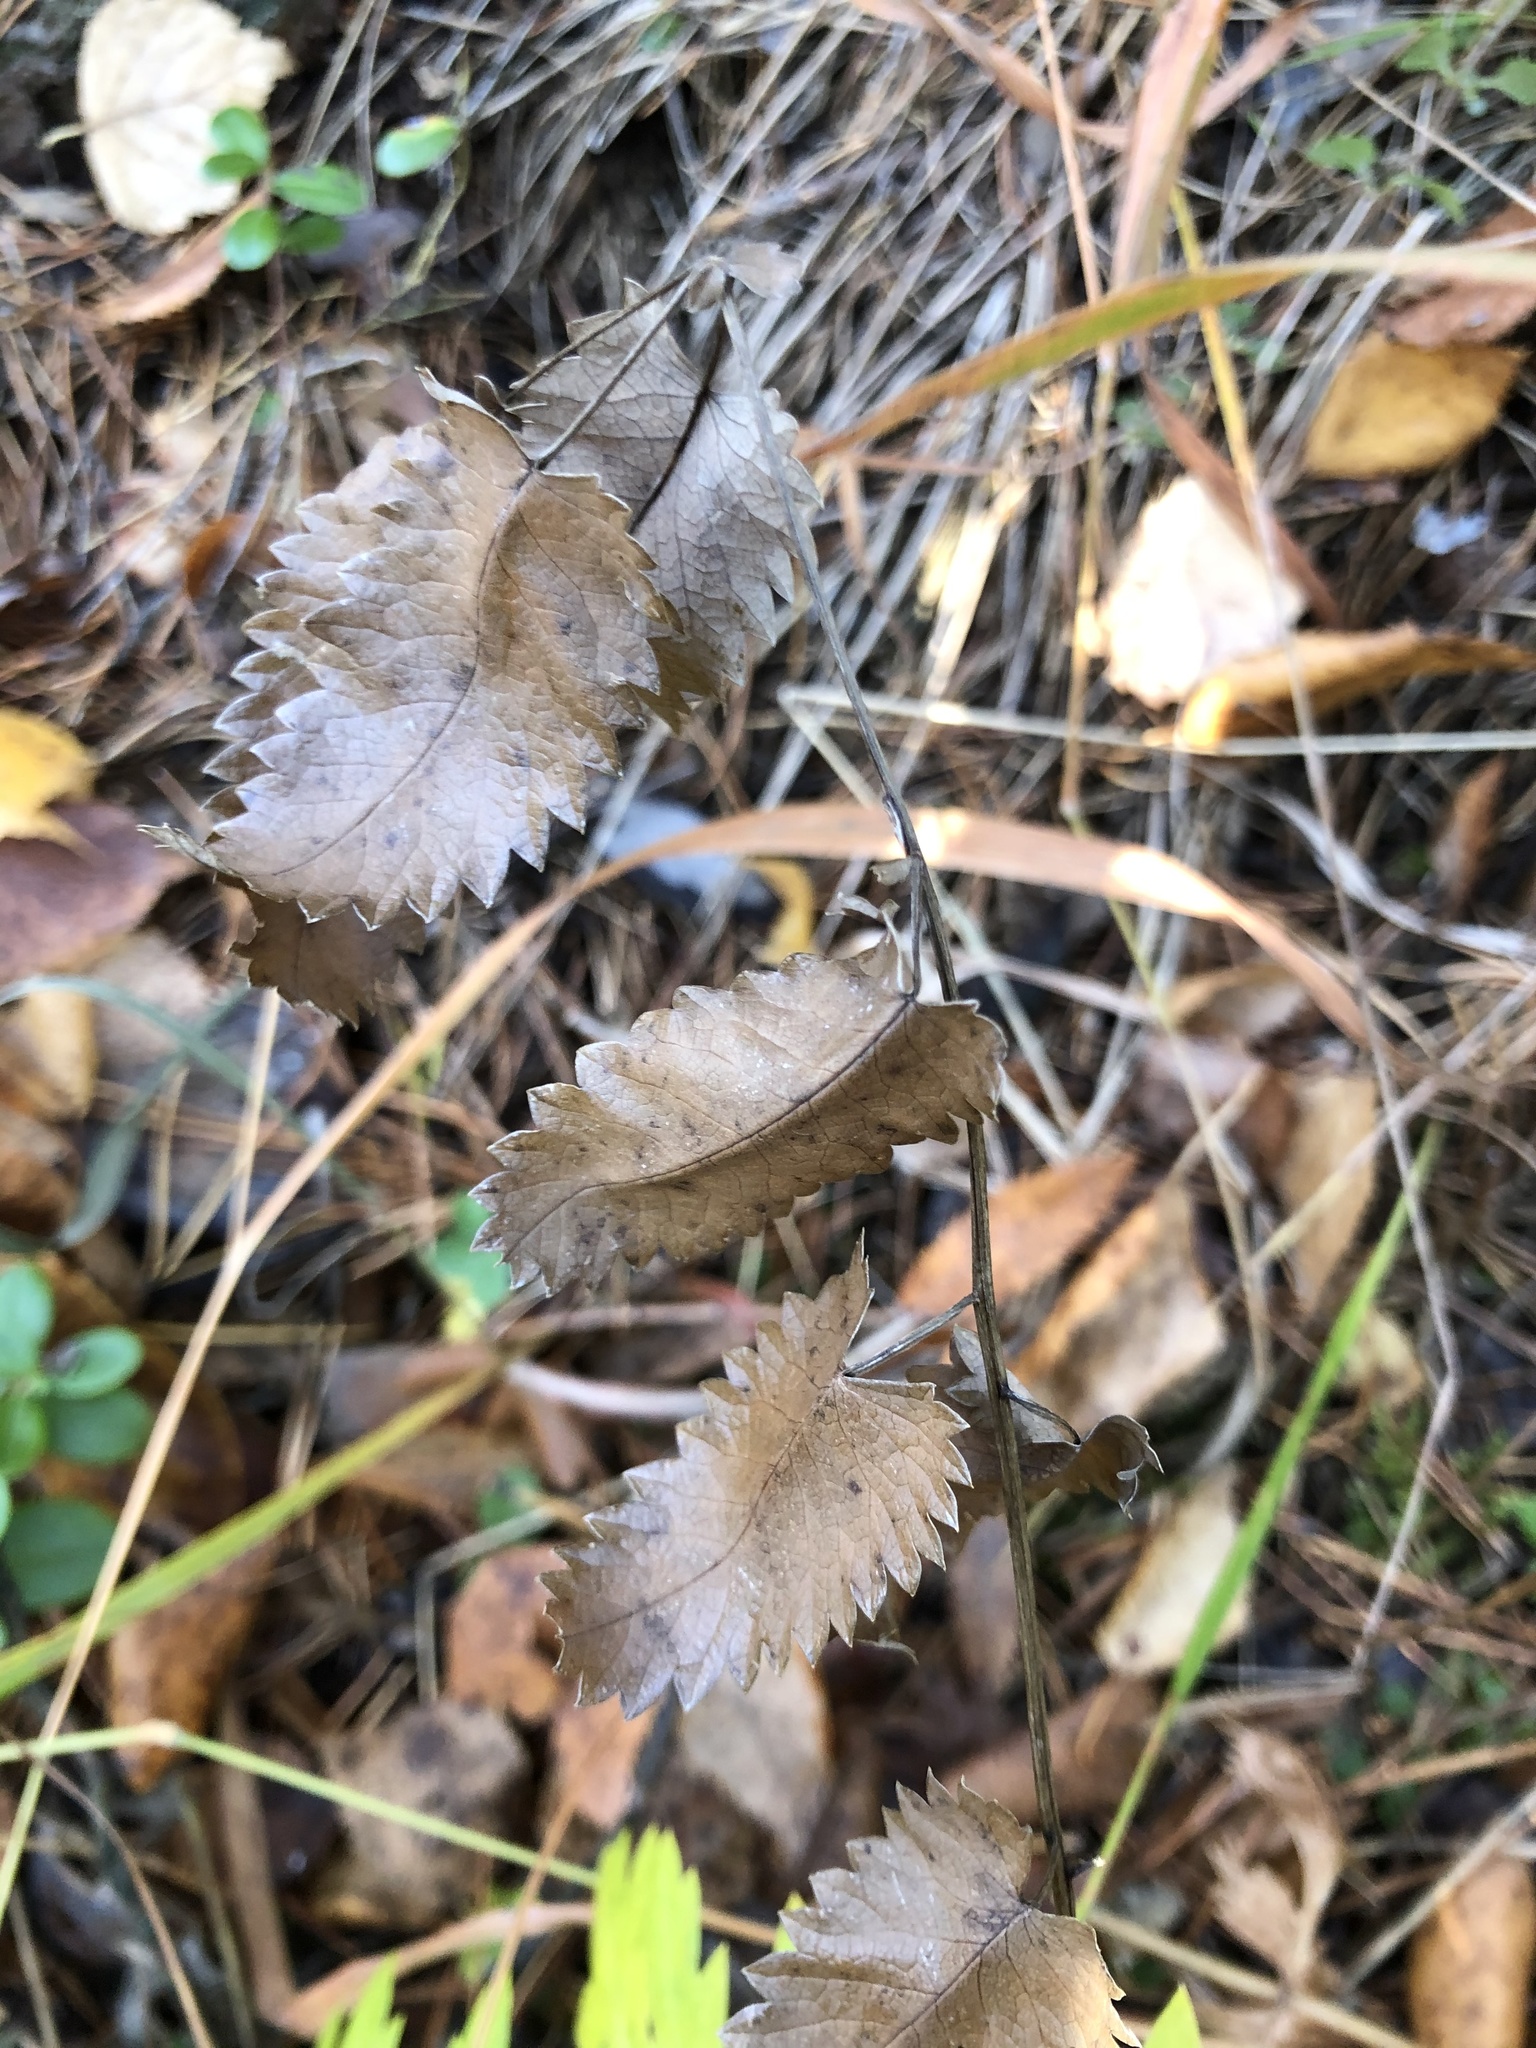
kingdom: Plantae
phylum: Tracheophyta
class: Magnoliopsida
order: Rosales
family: Rosaceae
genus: Sanguisorba
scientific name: Sanguisorba officinalis
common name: Great burnet
